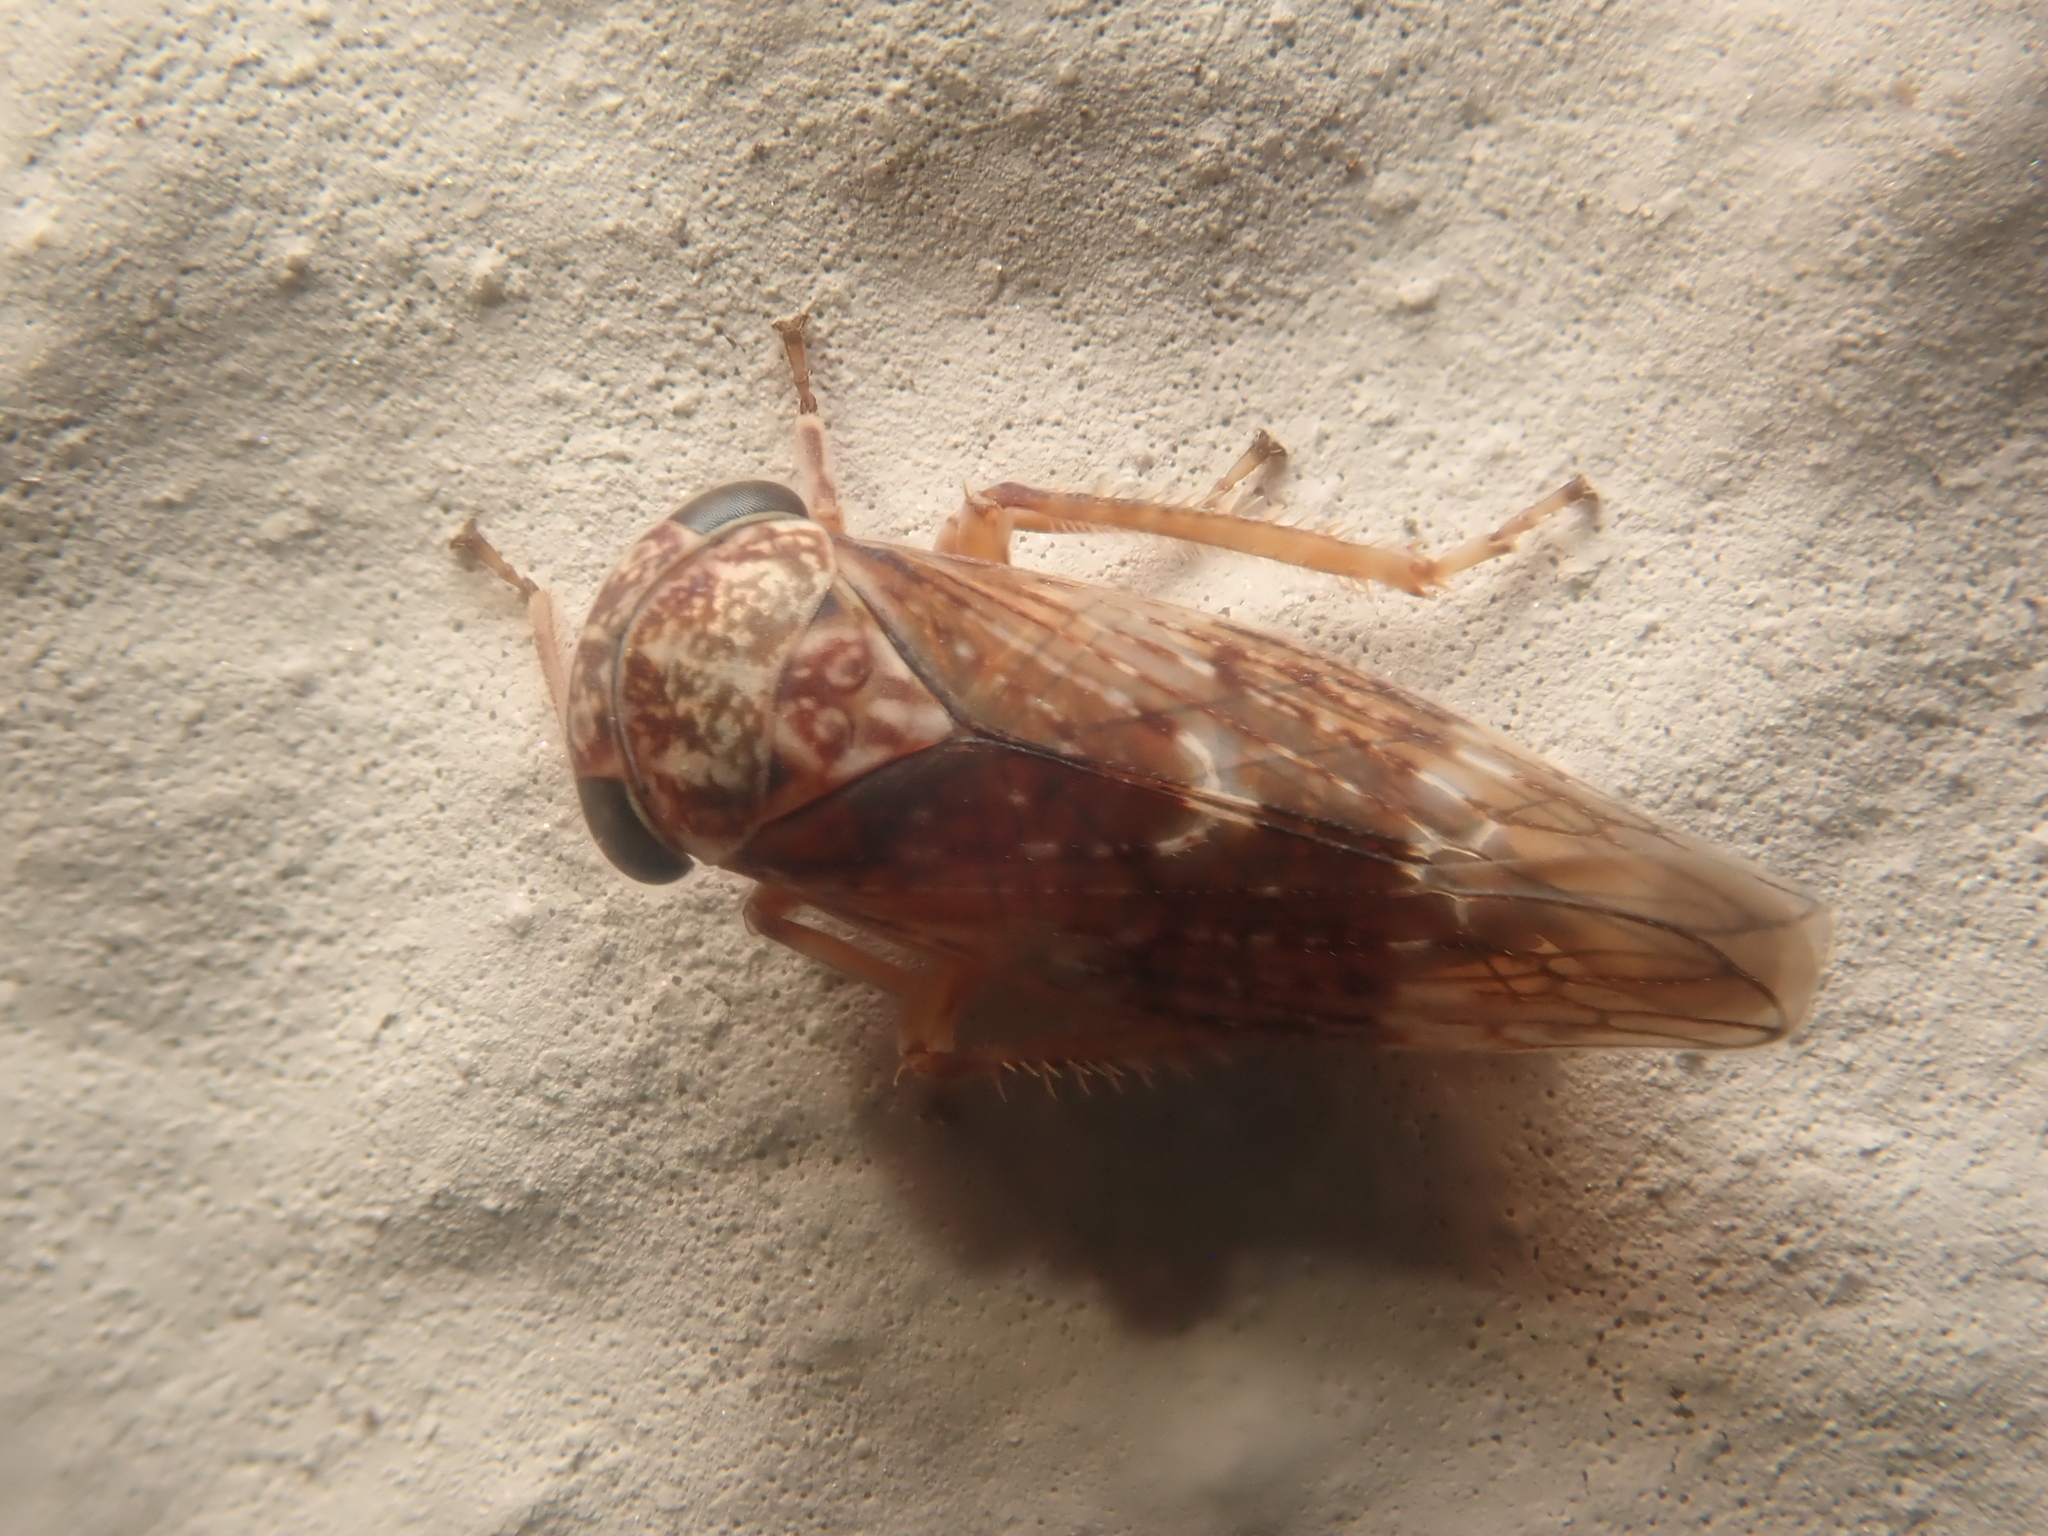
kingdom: Animalia
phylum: Arthropoda
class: Insecta
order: Hemiptera
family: Cicadellidae
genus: Acericerus
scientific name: Acericerus ribauti
